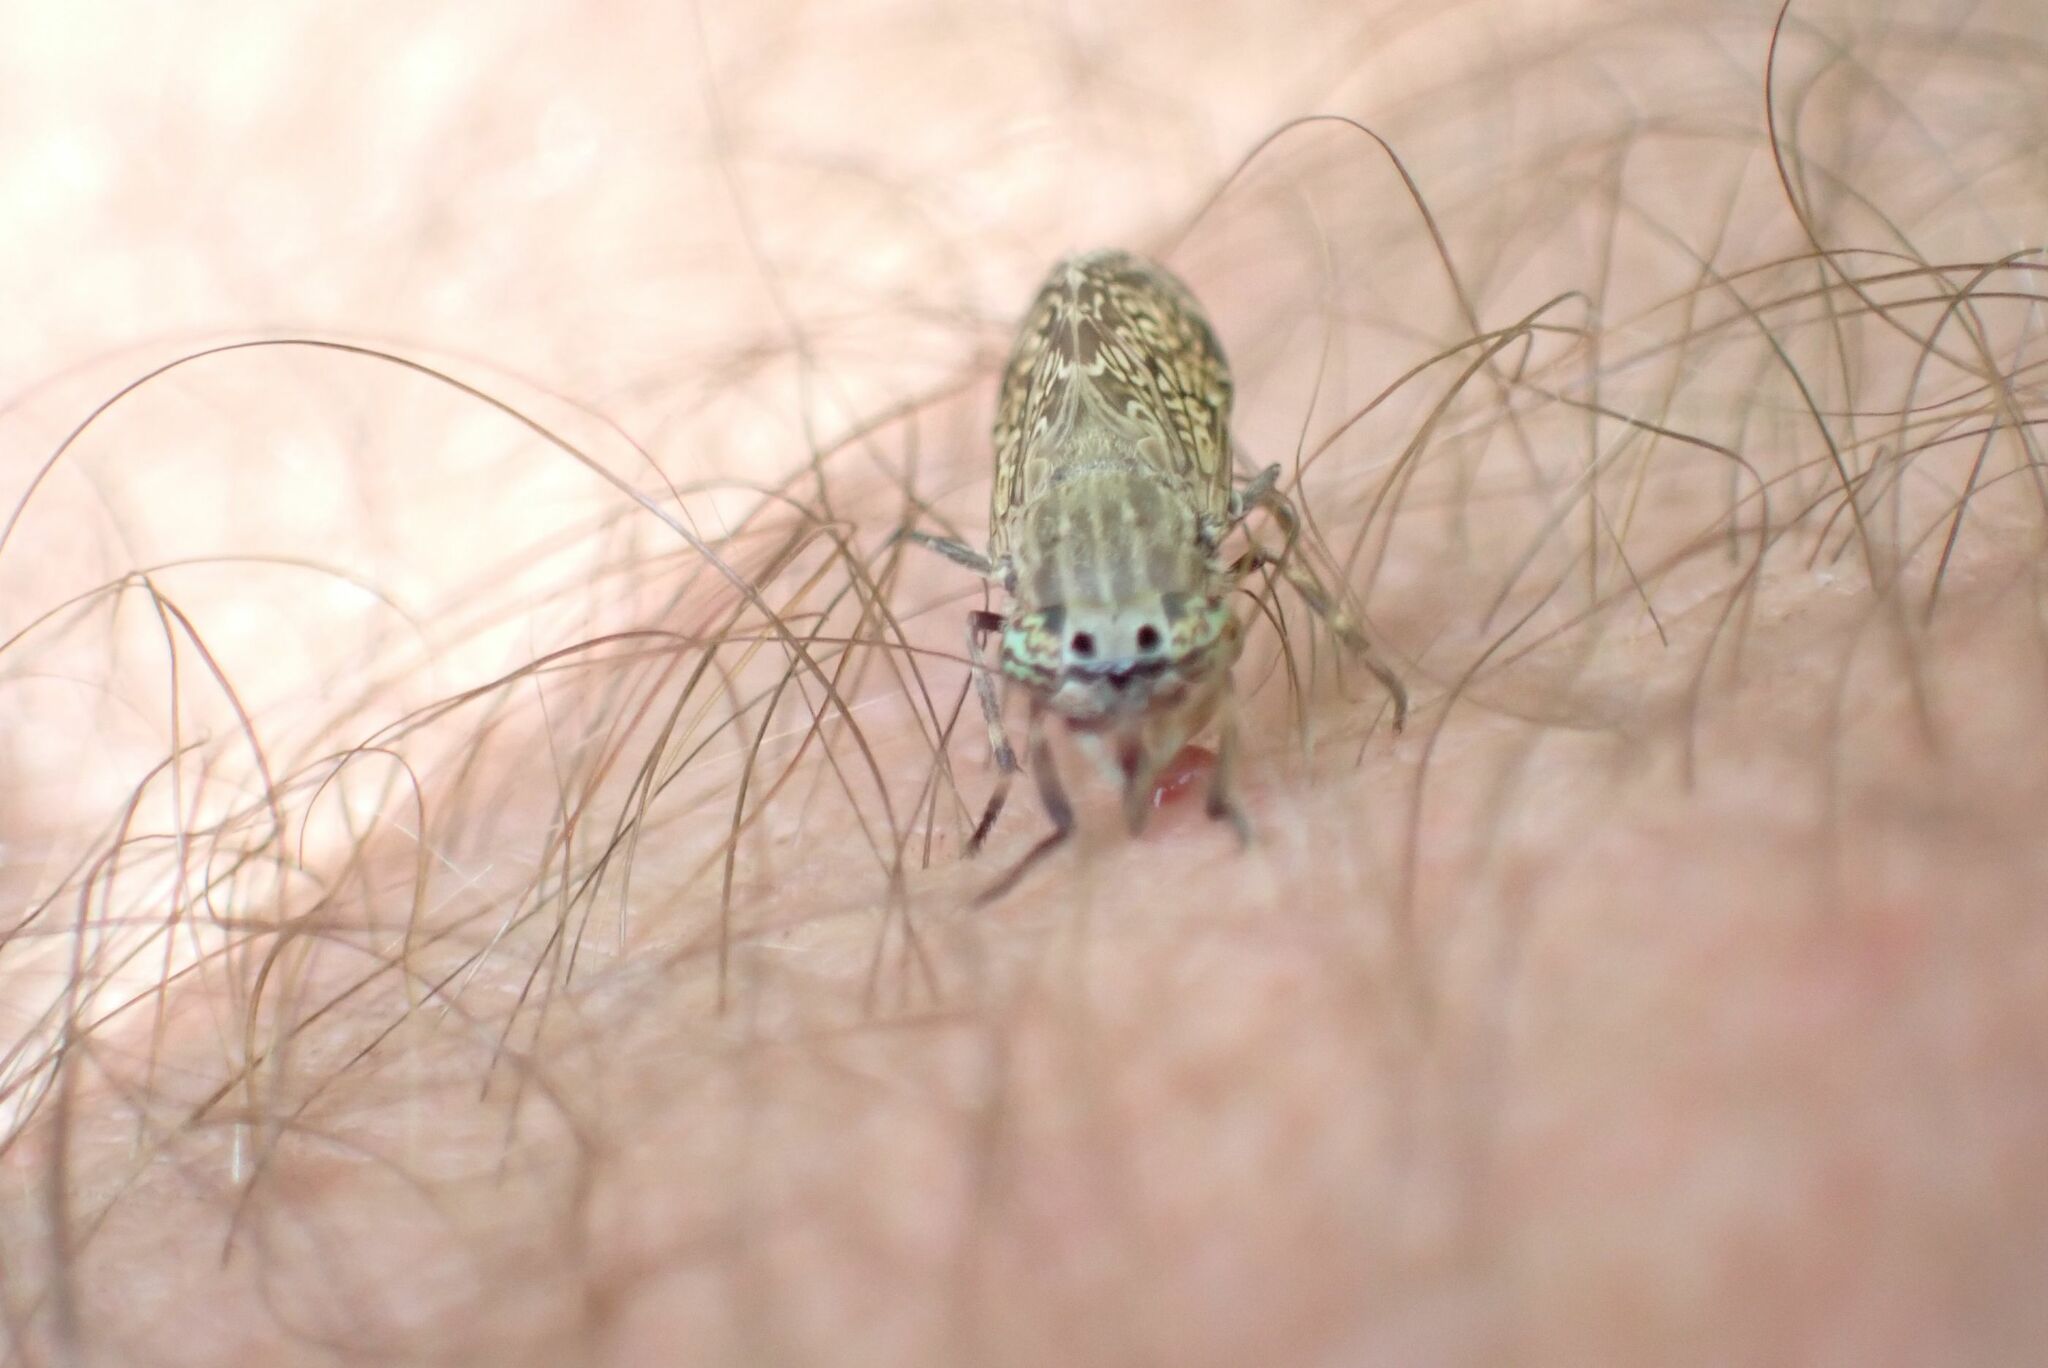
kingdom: Animalia
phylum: Arthropoda
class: Insecta
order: Diptera
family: Tabanidae
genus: Haematopota
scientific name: Haematopota circumscripta
